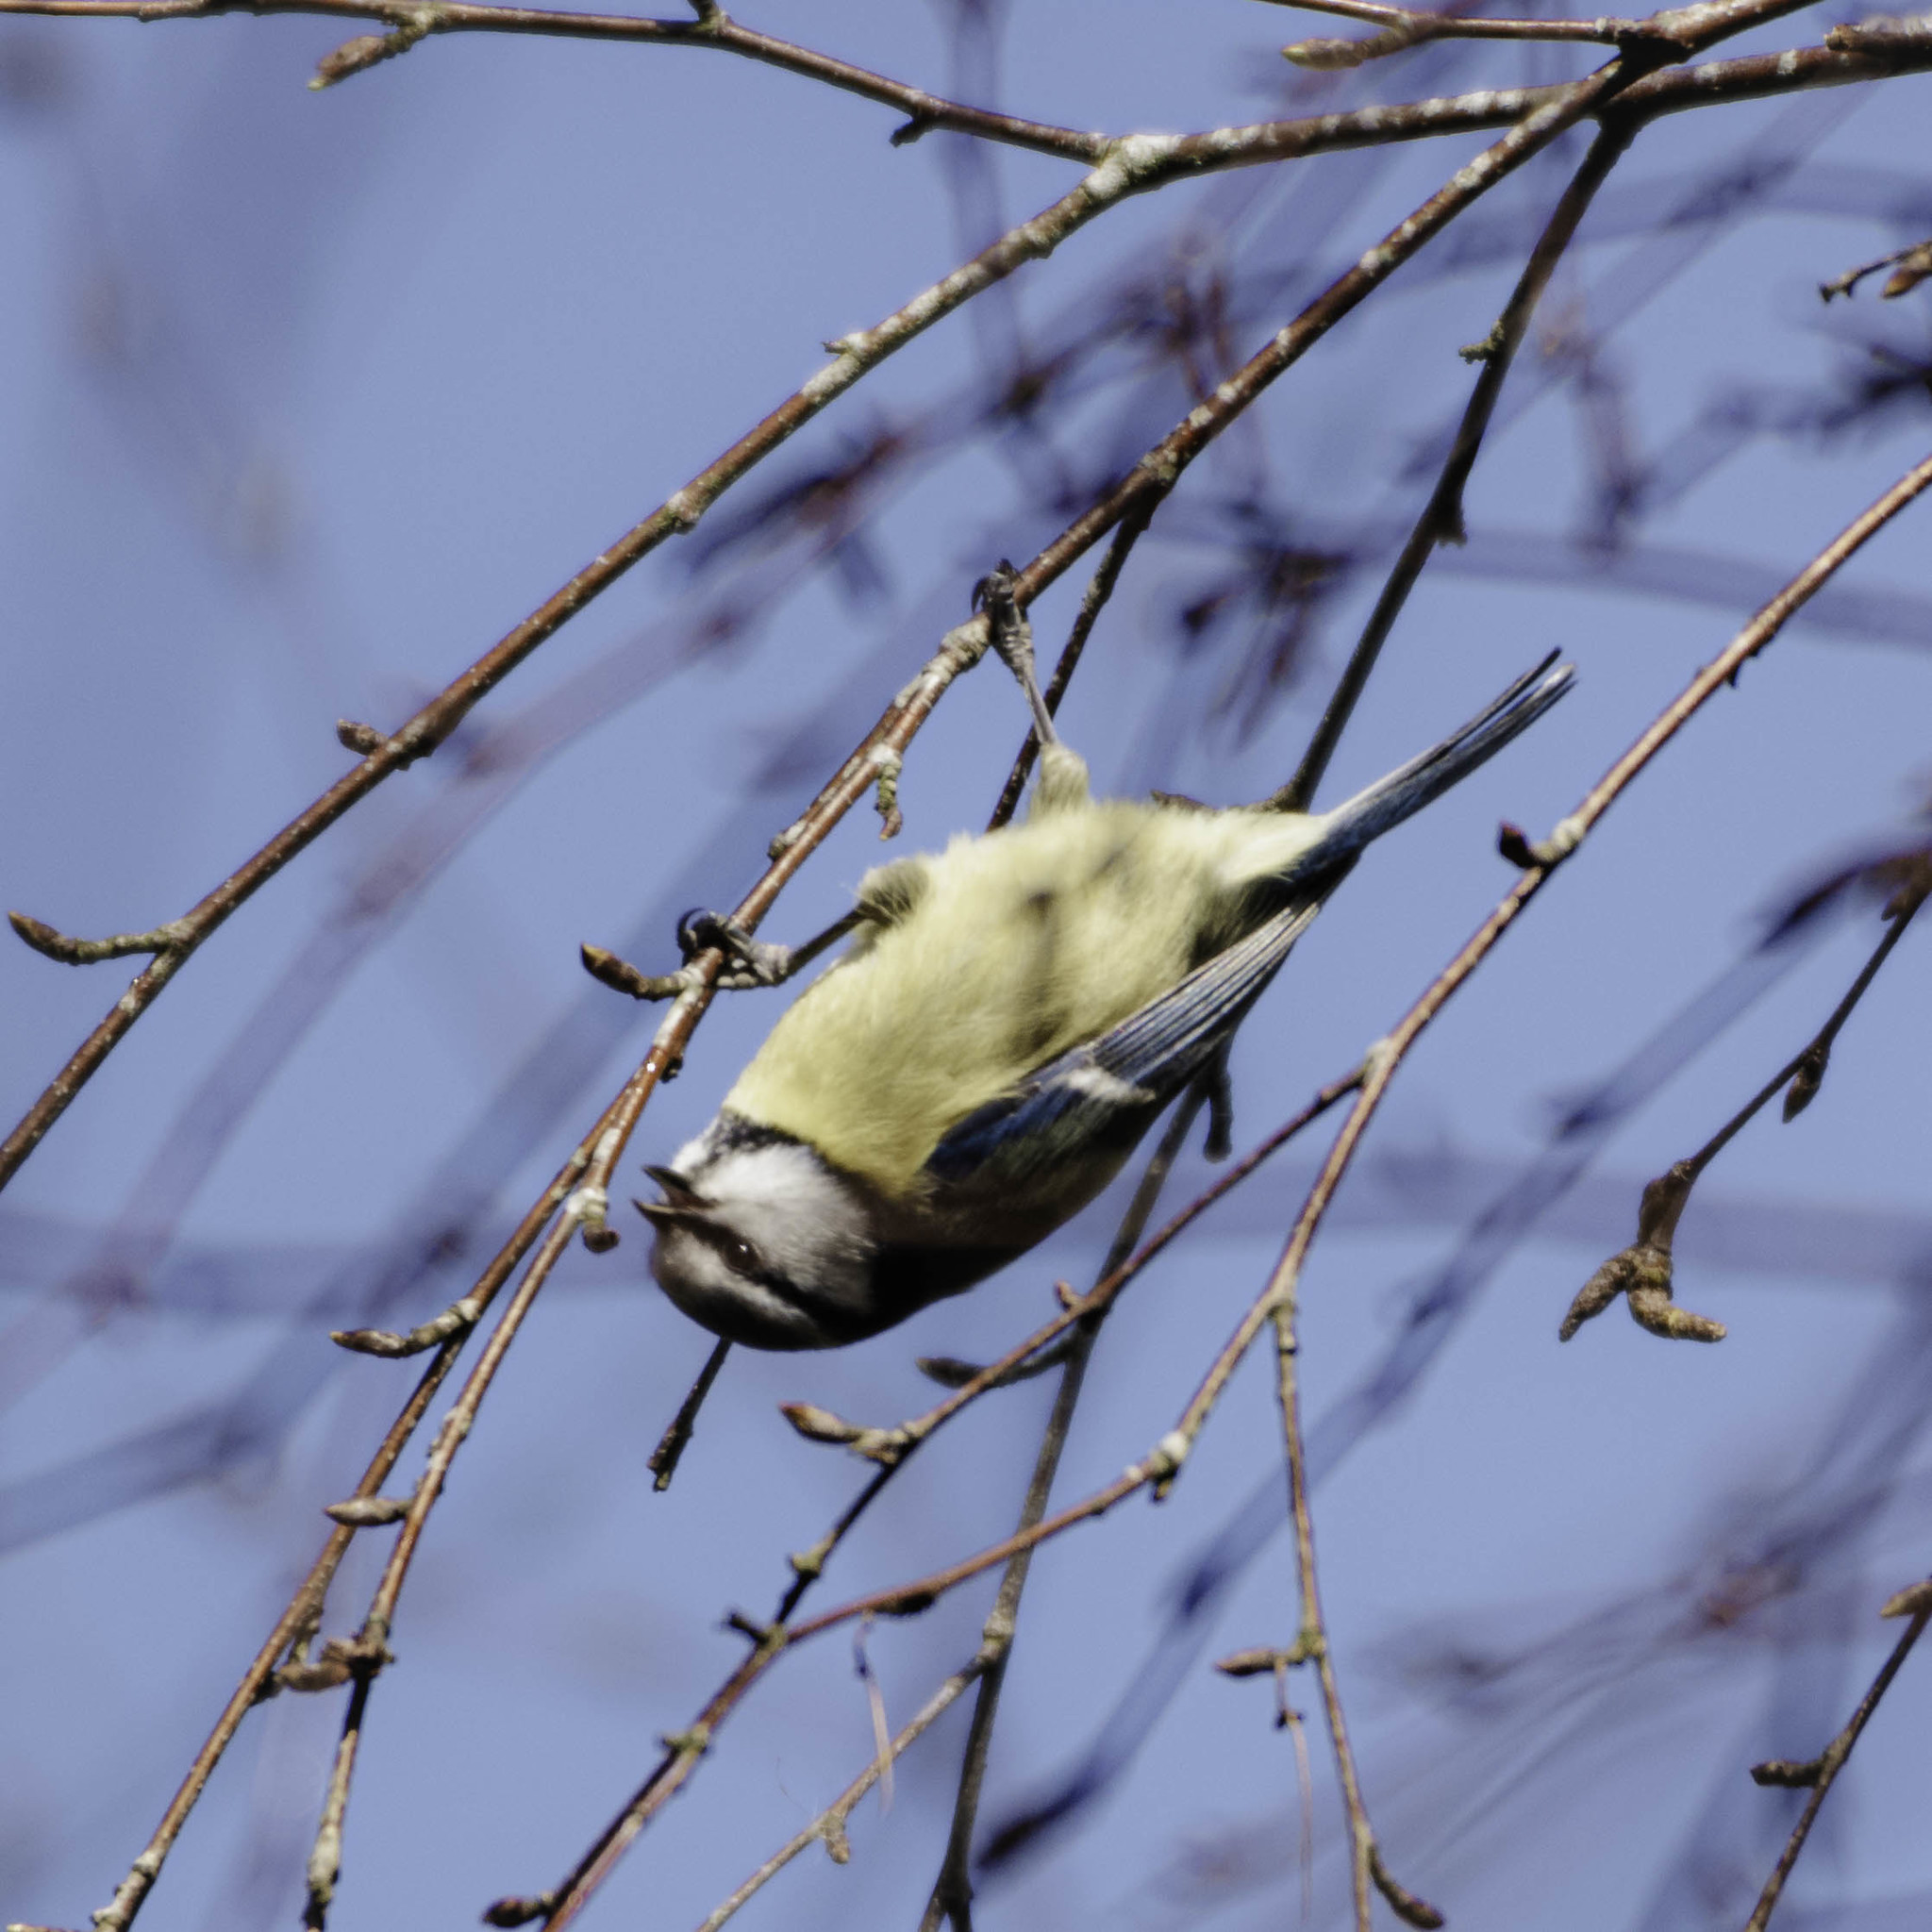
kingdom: Animalia
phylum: Chordata
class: Aves
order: Passeriformes
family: Paridae
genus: Cyanistes
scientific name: Cyanistes caeruleus
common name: Eurasian blue tit
